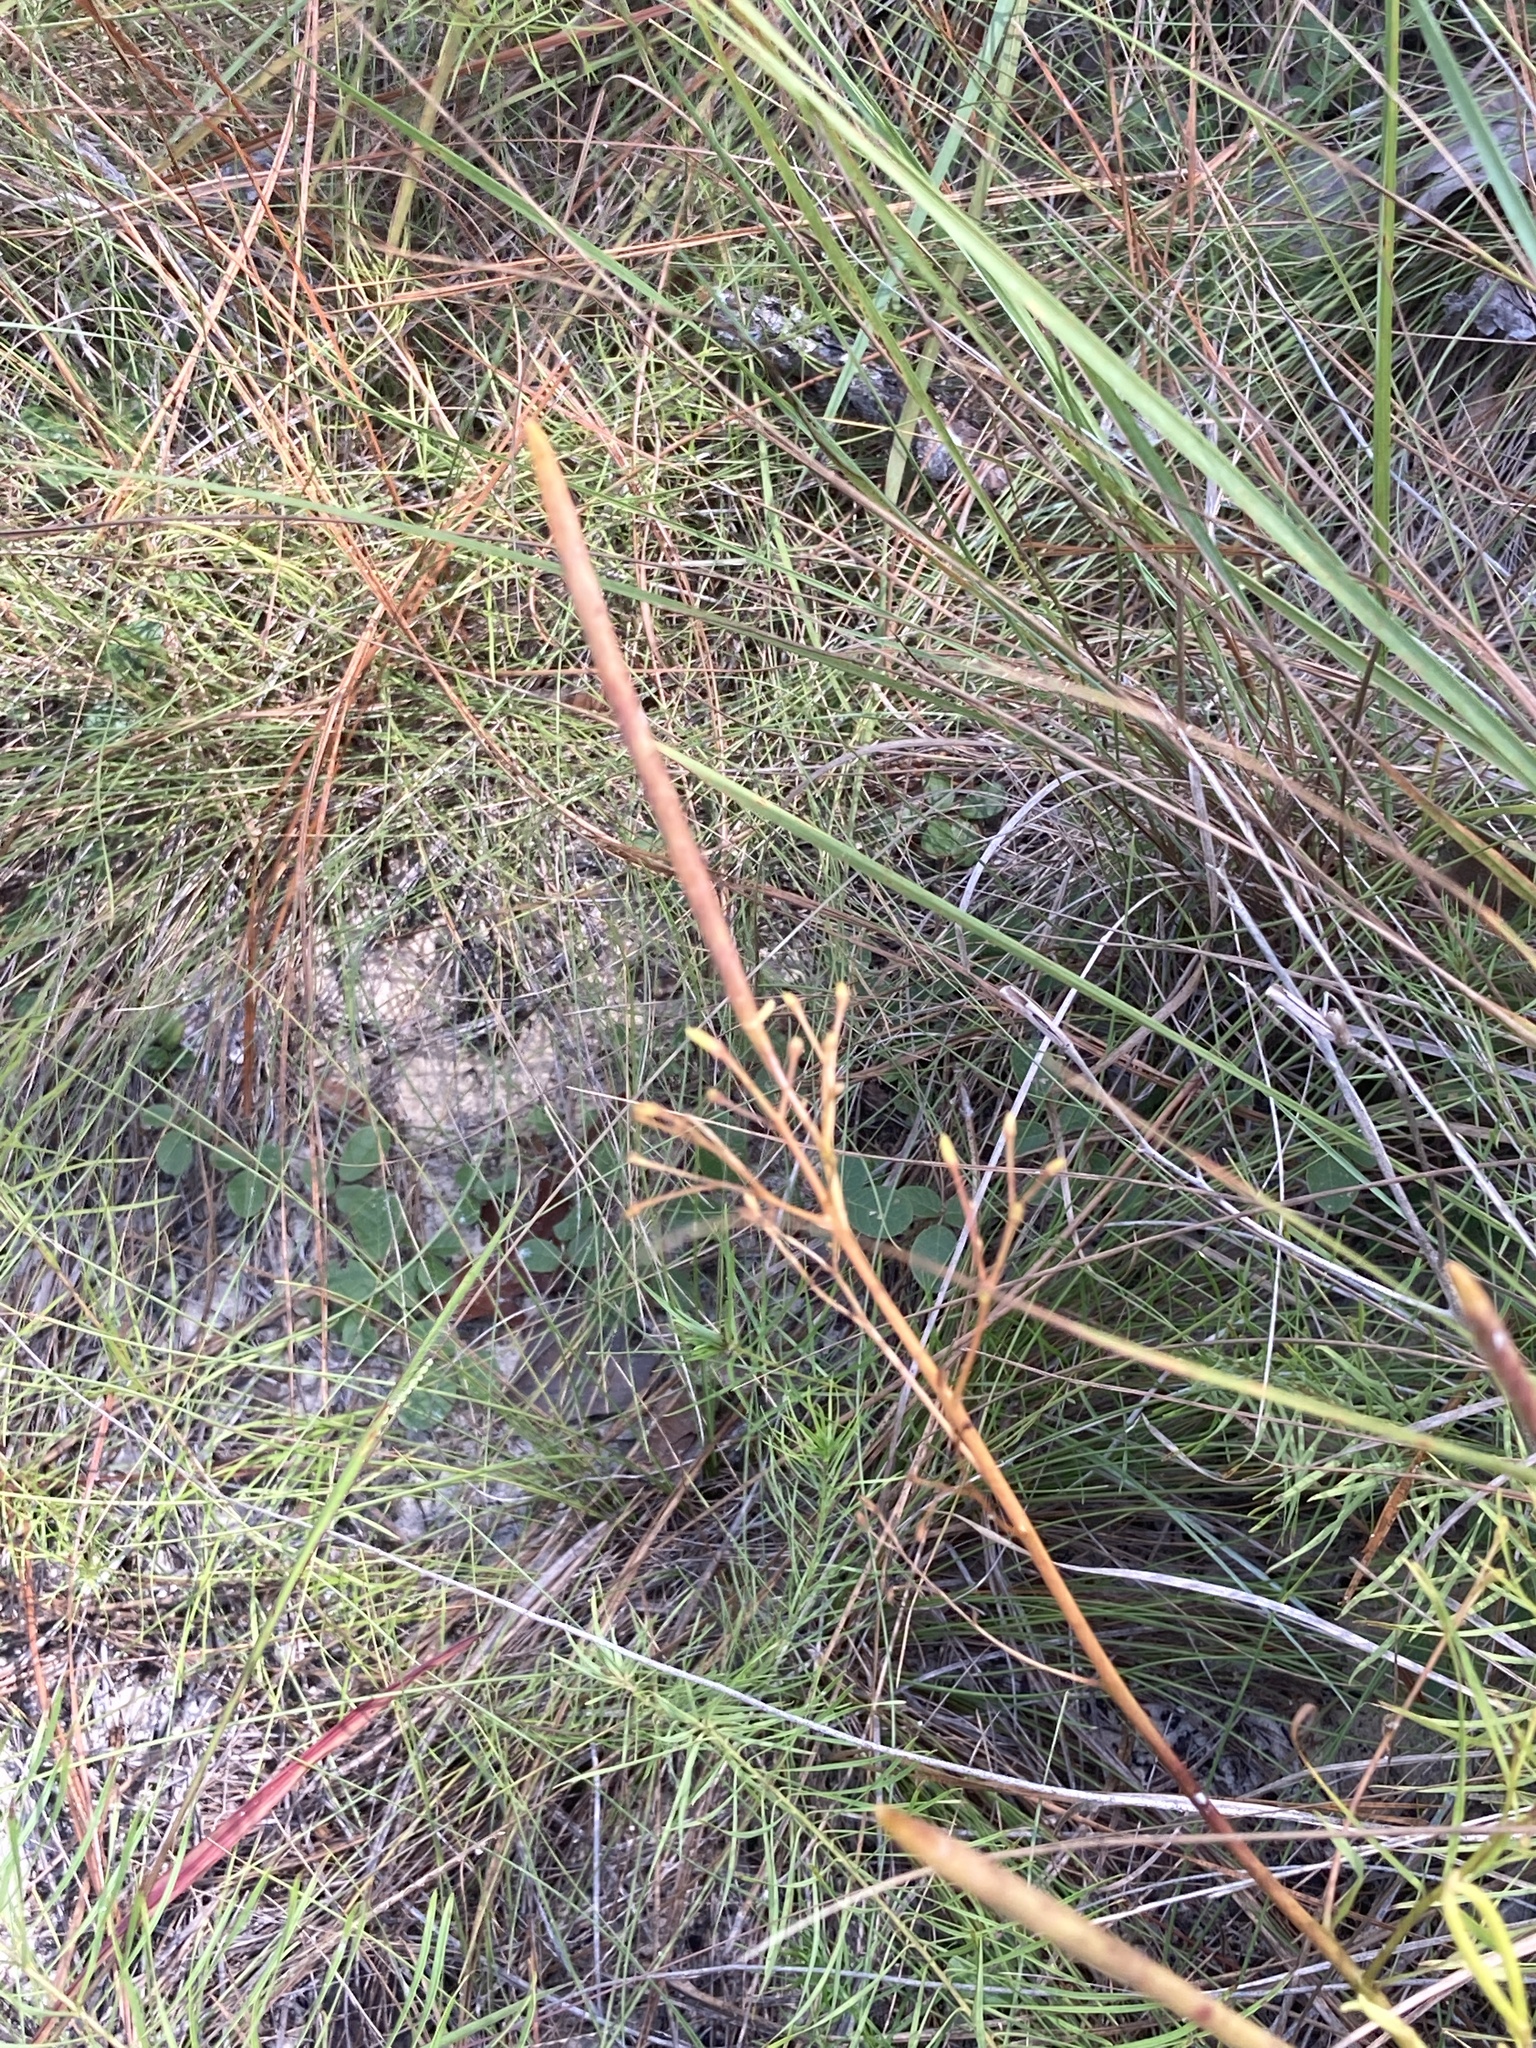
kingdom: Plantae
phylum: Tracheophyta
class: Magnoliopsida
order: Gentianales
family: Apocynaceae
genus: Amsonia
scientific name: Amsonia ciliata
